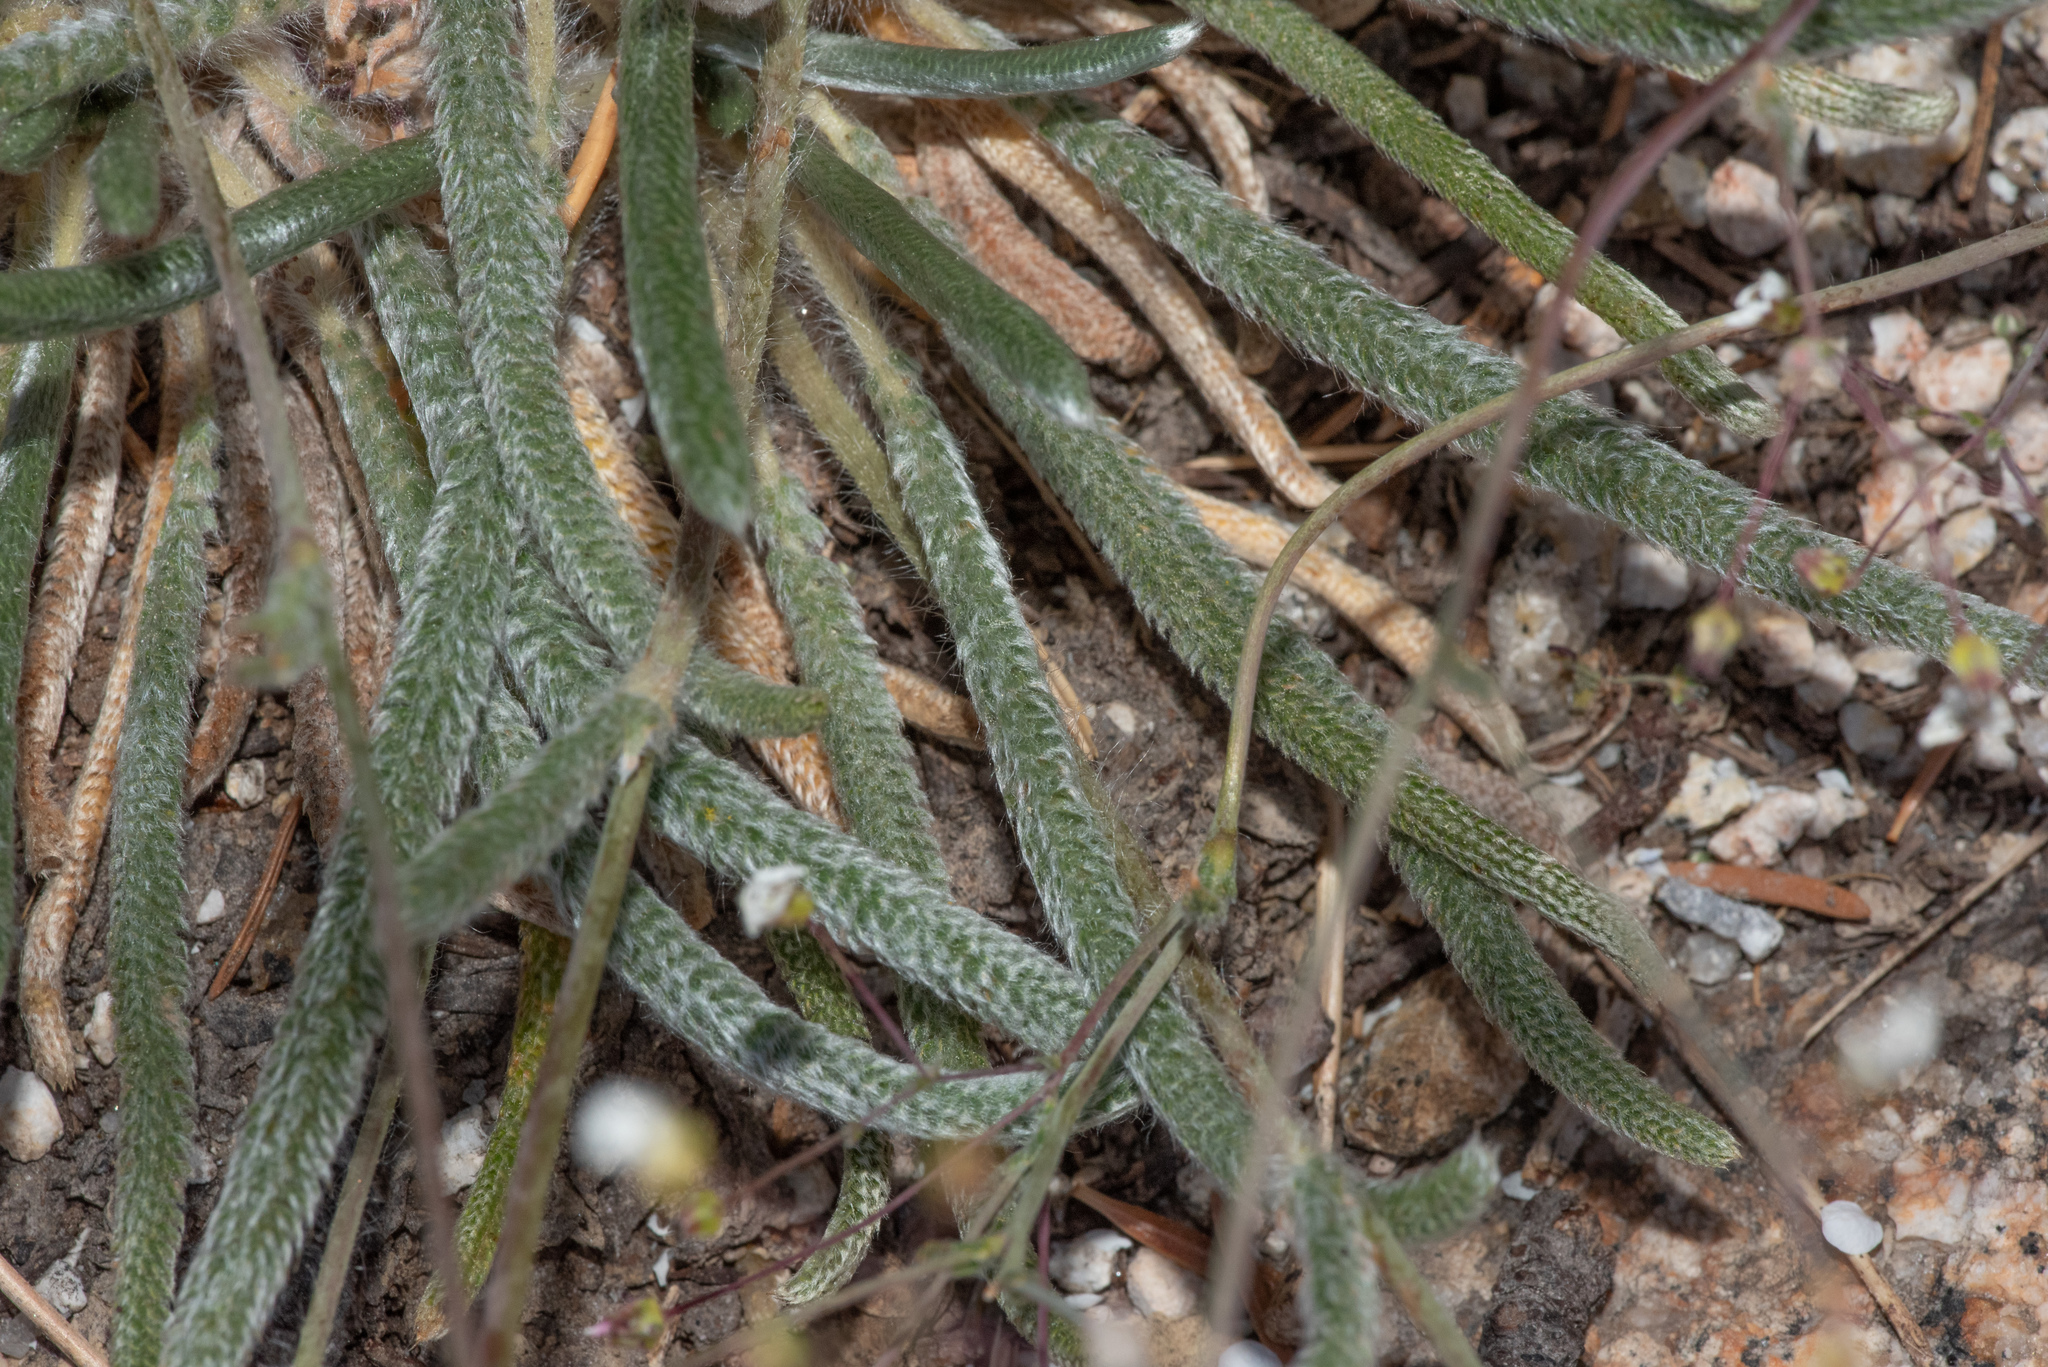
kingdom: Plantae
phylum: Tracheophyta
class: Magnoliopsida
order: Rosales
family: Rosaceae
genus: Potentilla
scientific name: Potentilla santolinoides
